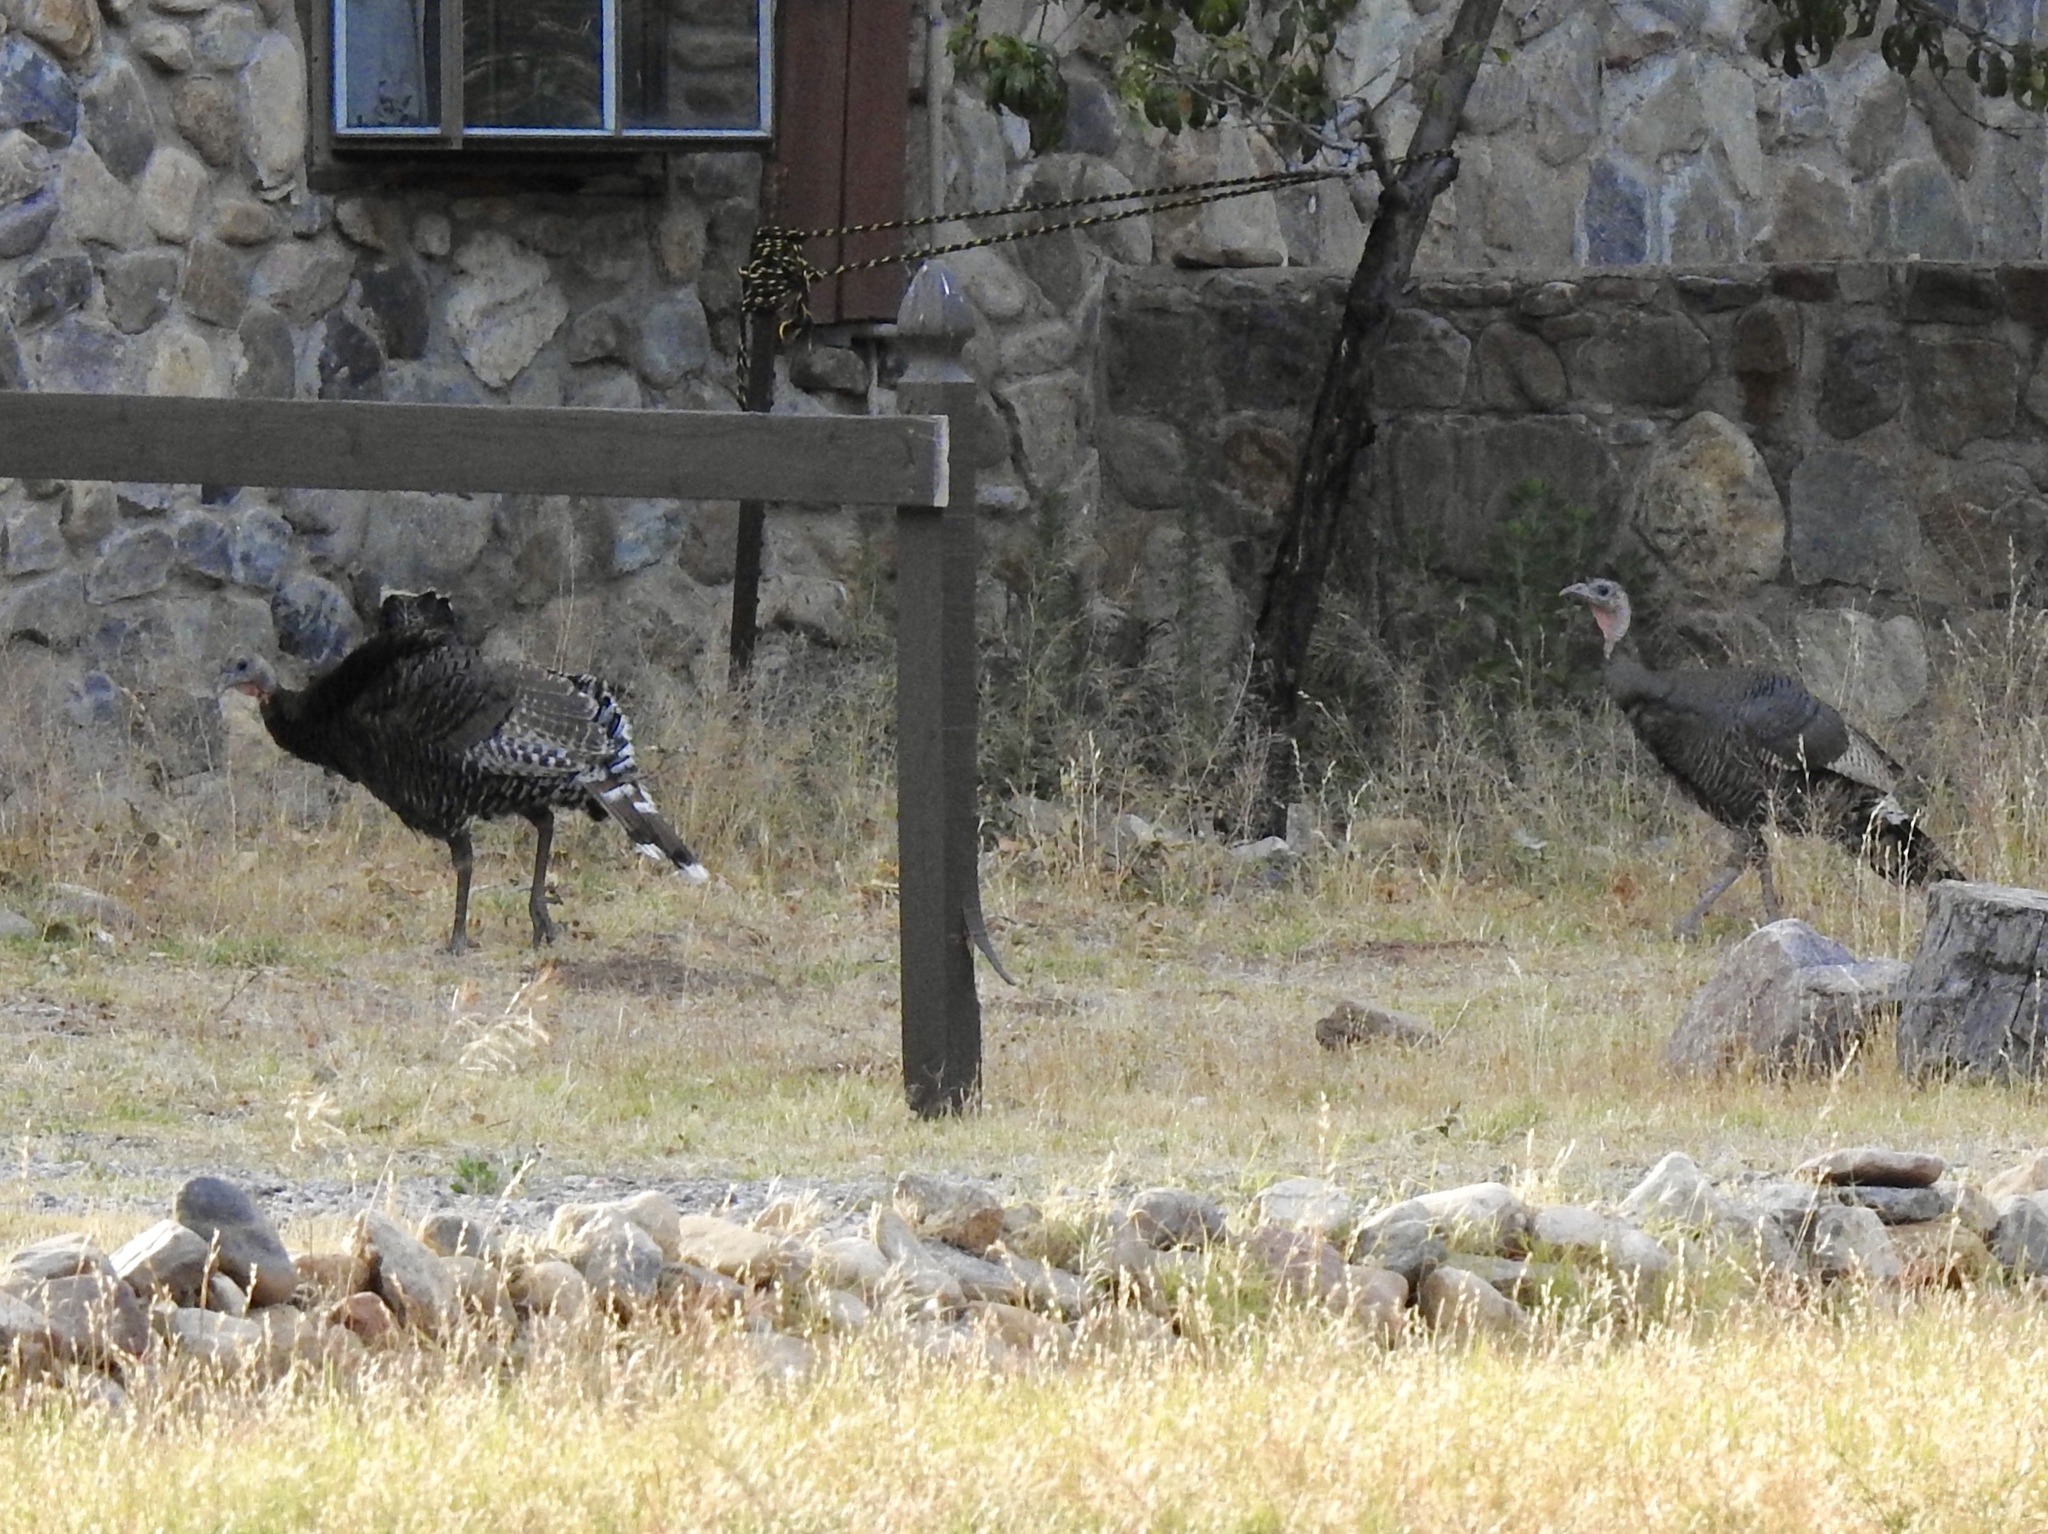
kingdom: Animalia
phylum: Chordata
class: Aves
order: Galliformes
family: Phasianidae
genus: Meleagris
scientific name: Meleagris gallopavo
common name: Wild turkey
